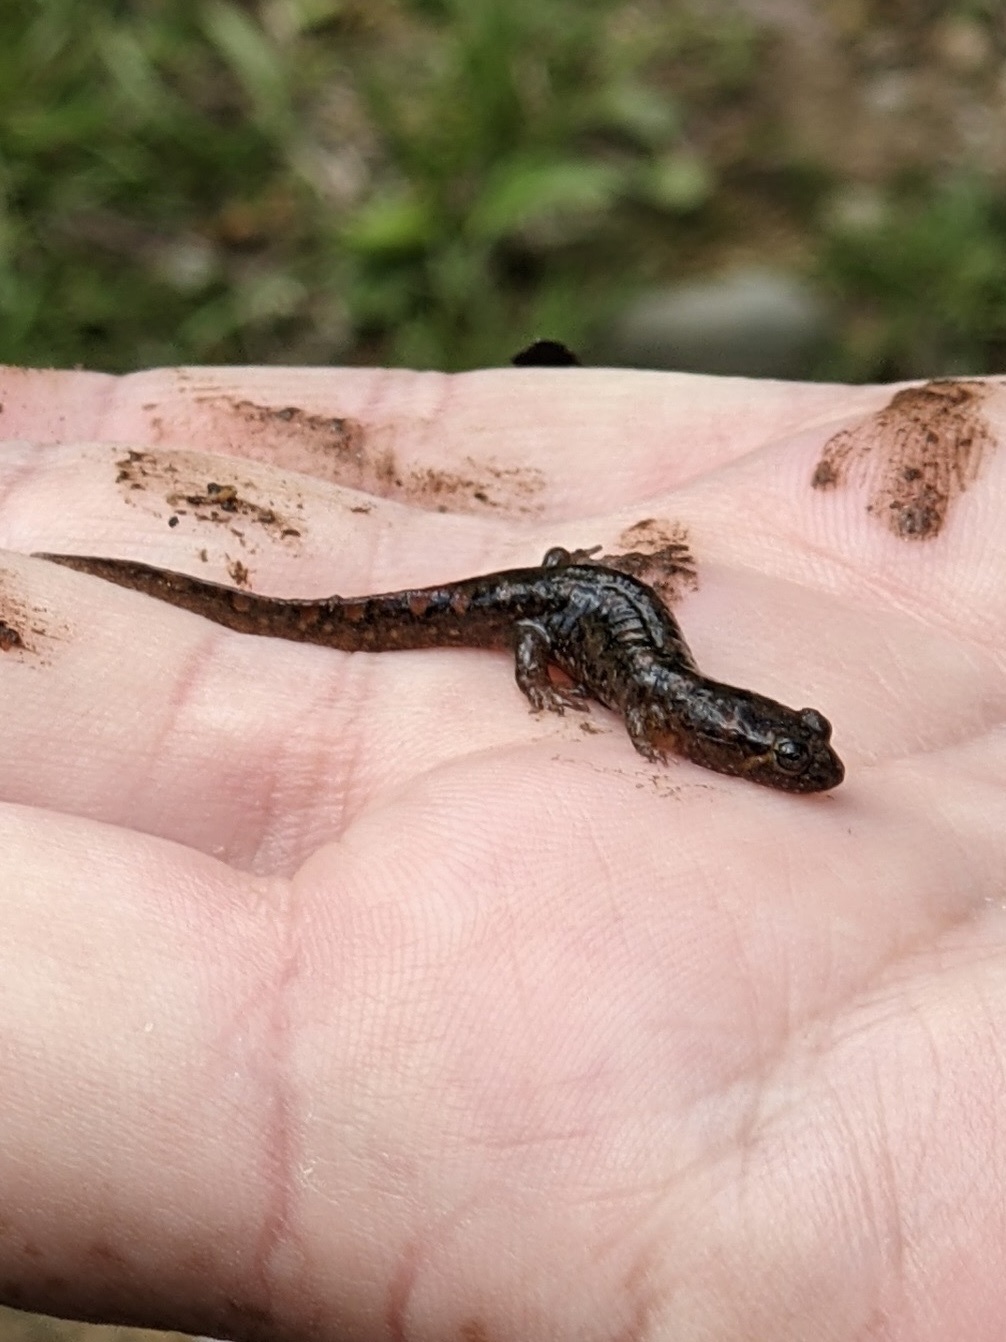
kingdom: Animalia
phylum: Chordata
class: Amphibia
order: Caudata
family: Plethodontidae
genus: Desmognathus
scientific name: Desmognathus monticola
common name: Seal salamander
